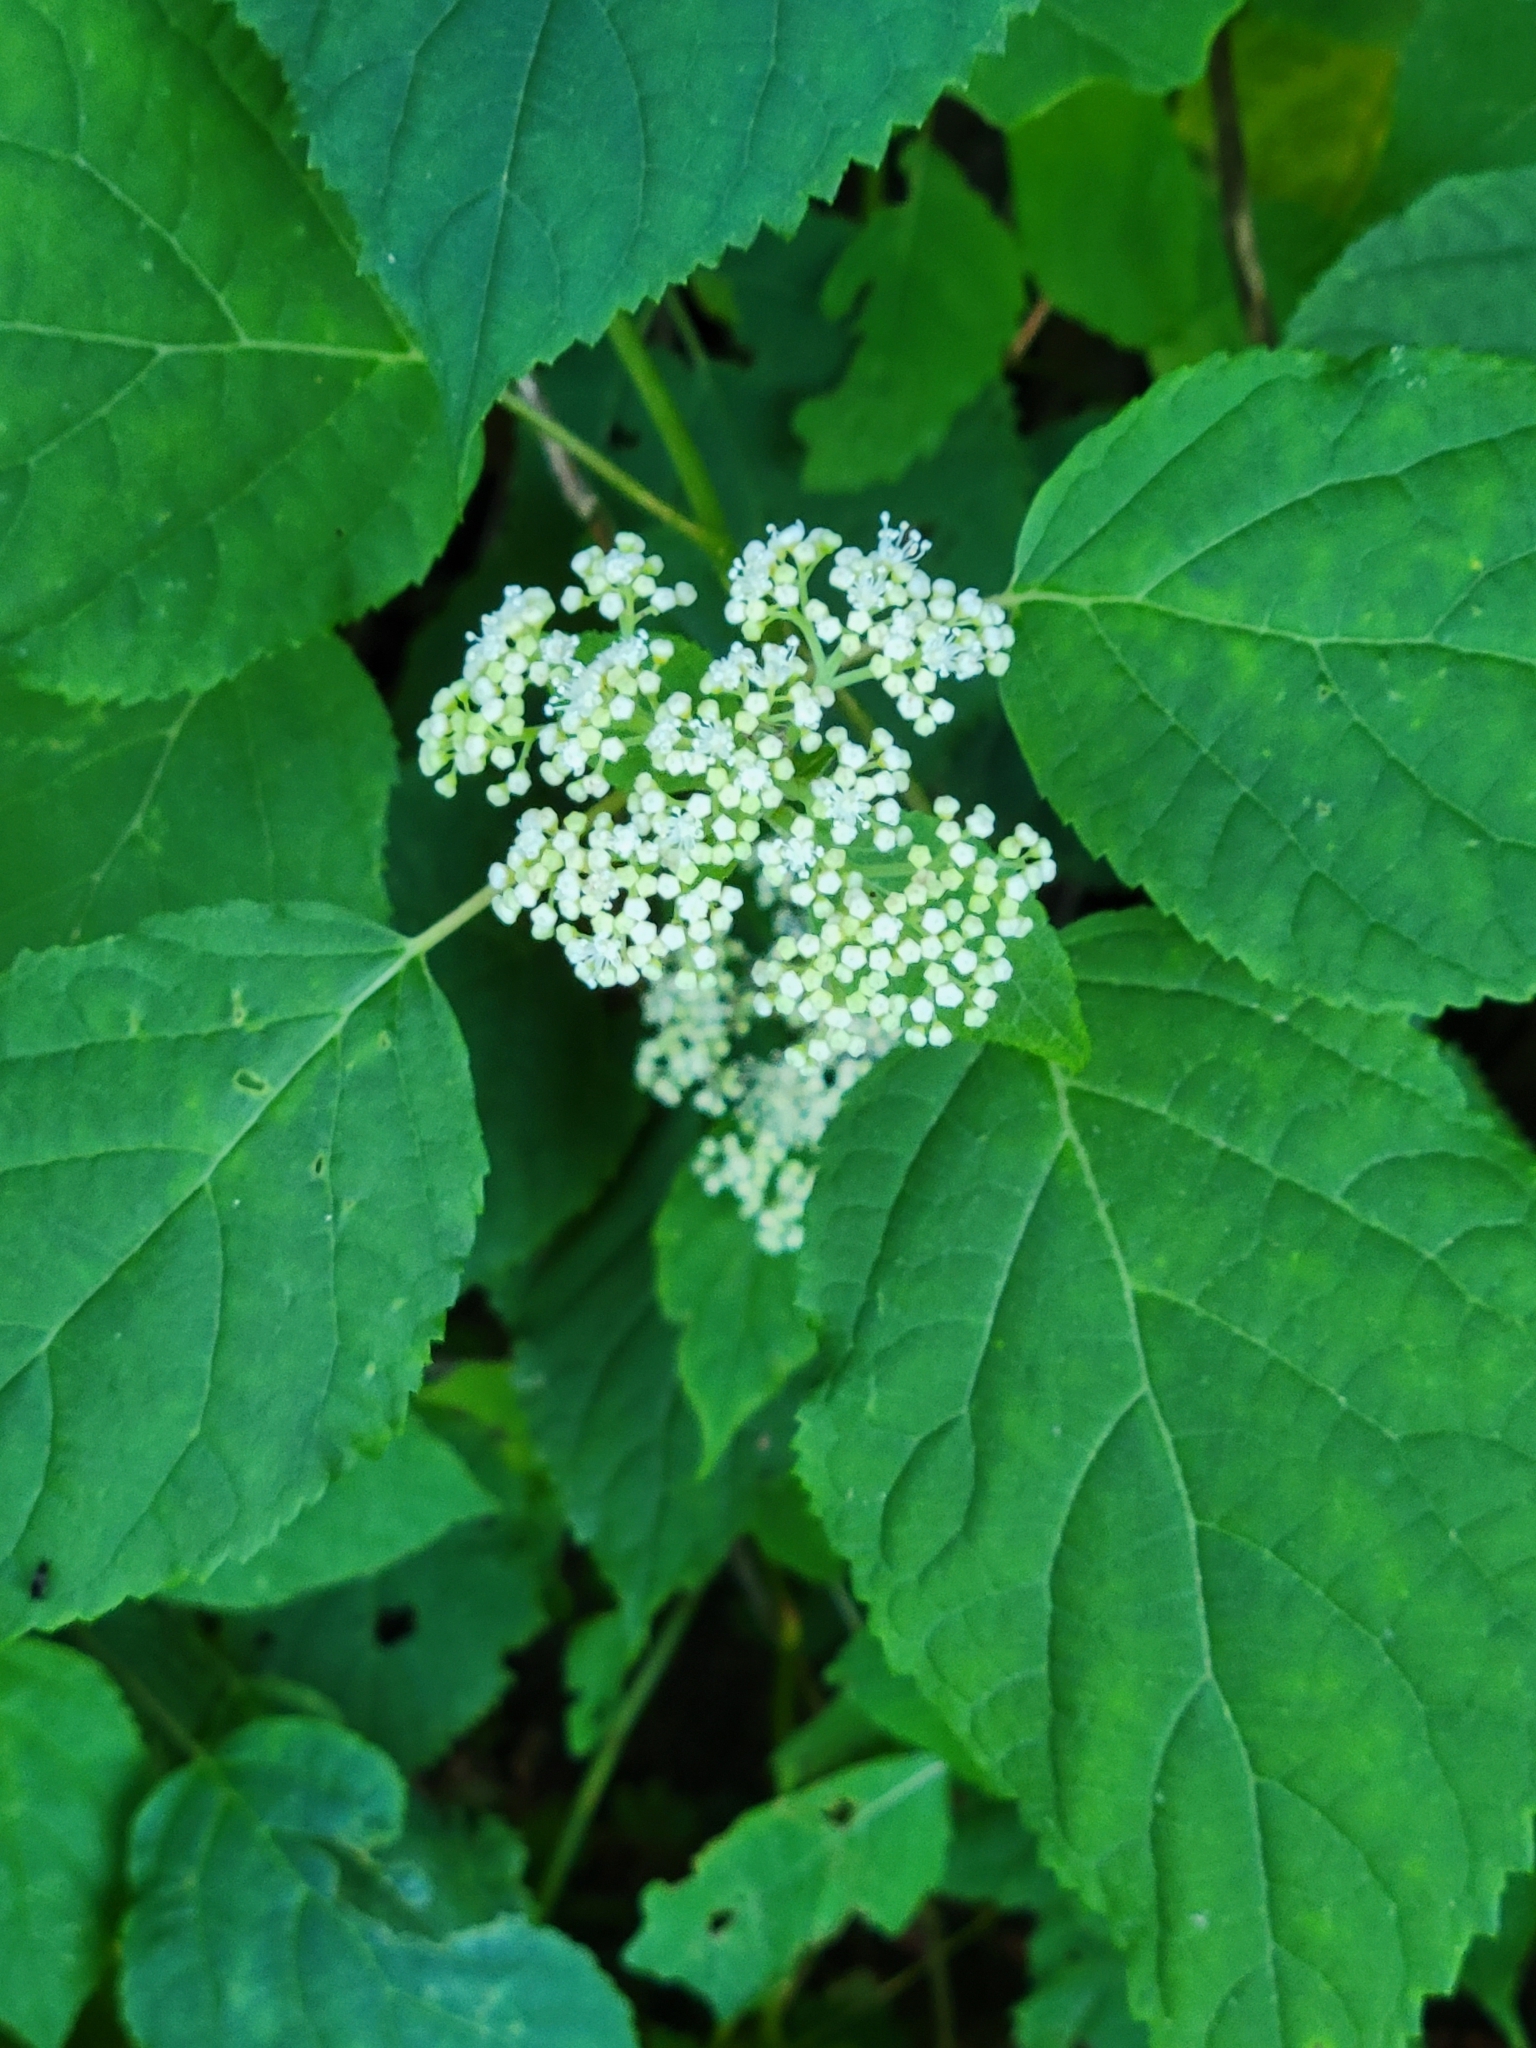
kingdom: Plantae
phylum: Tracheophyta
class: Magnoliopsida
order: Cornales
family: Hydrangeaceae
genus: Hydrangea
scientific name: Hydrangea arborescens
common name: Sevenbark
